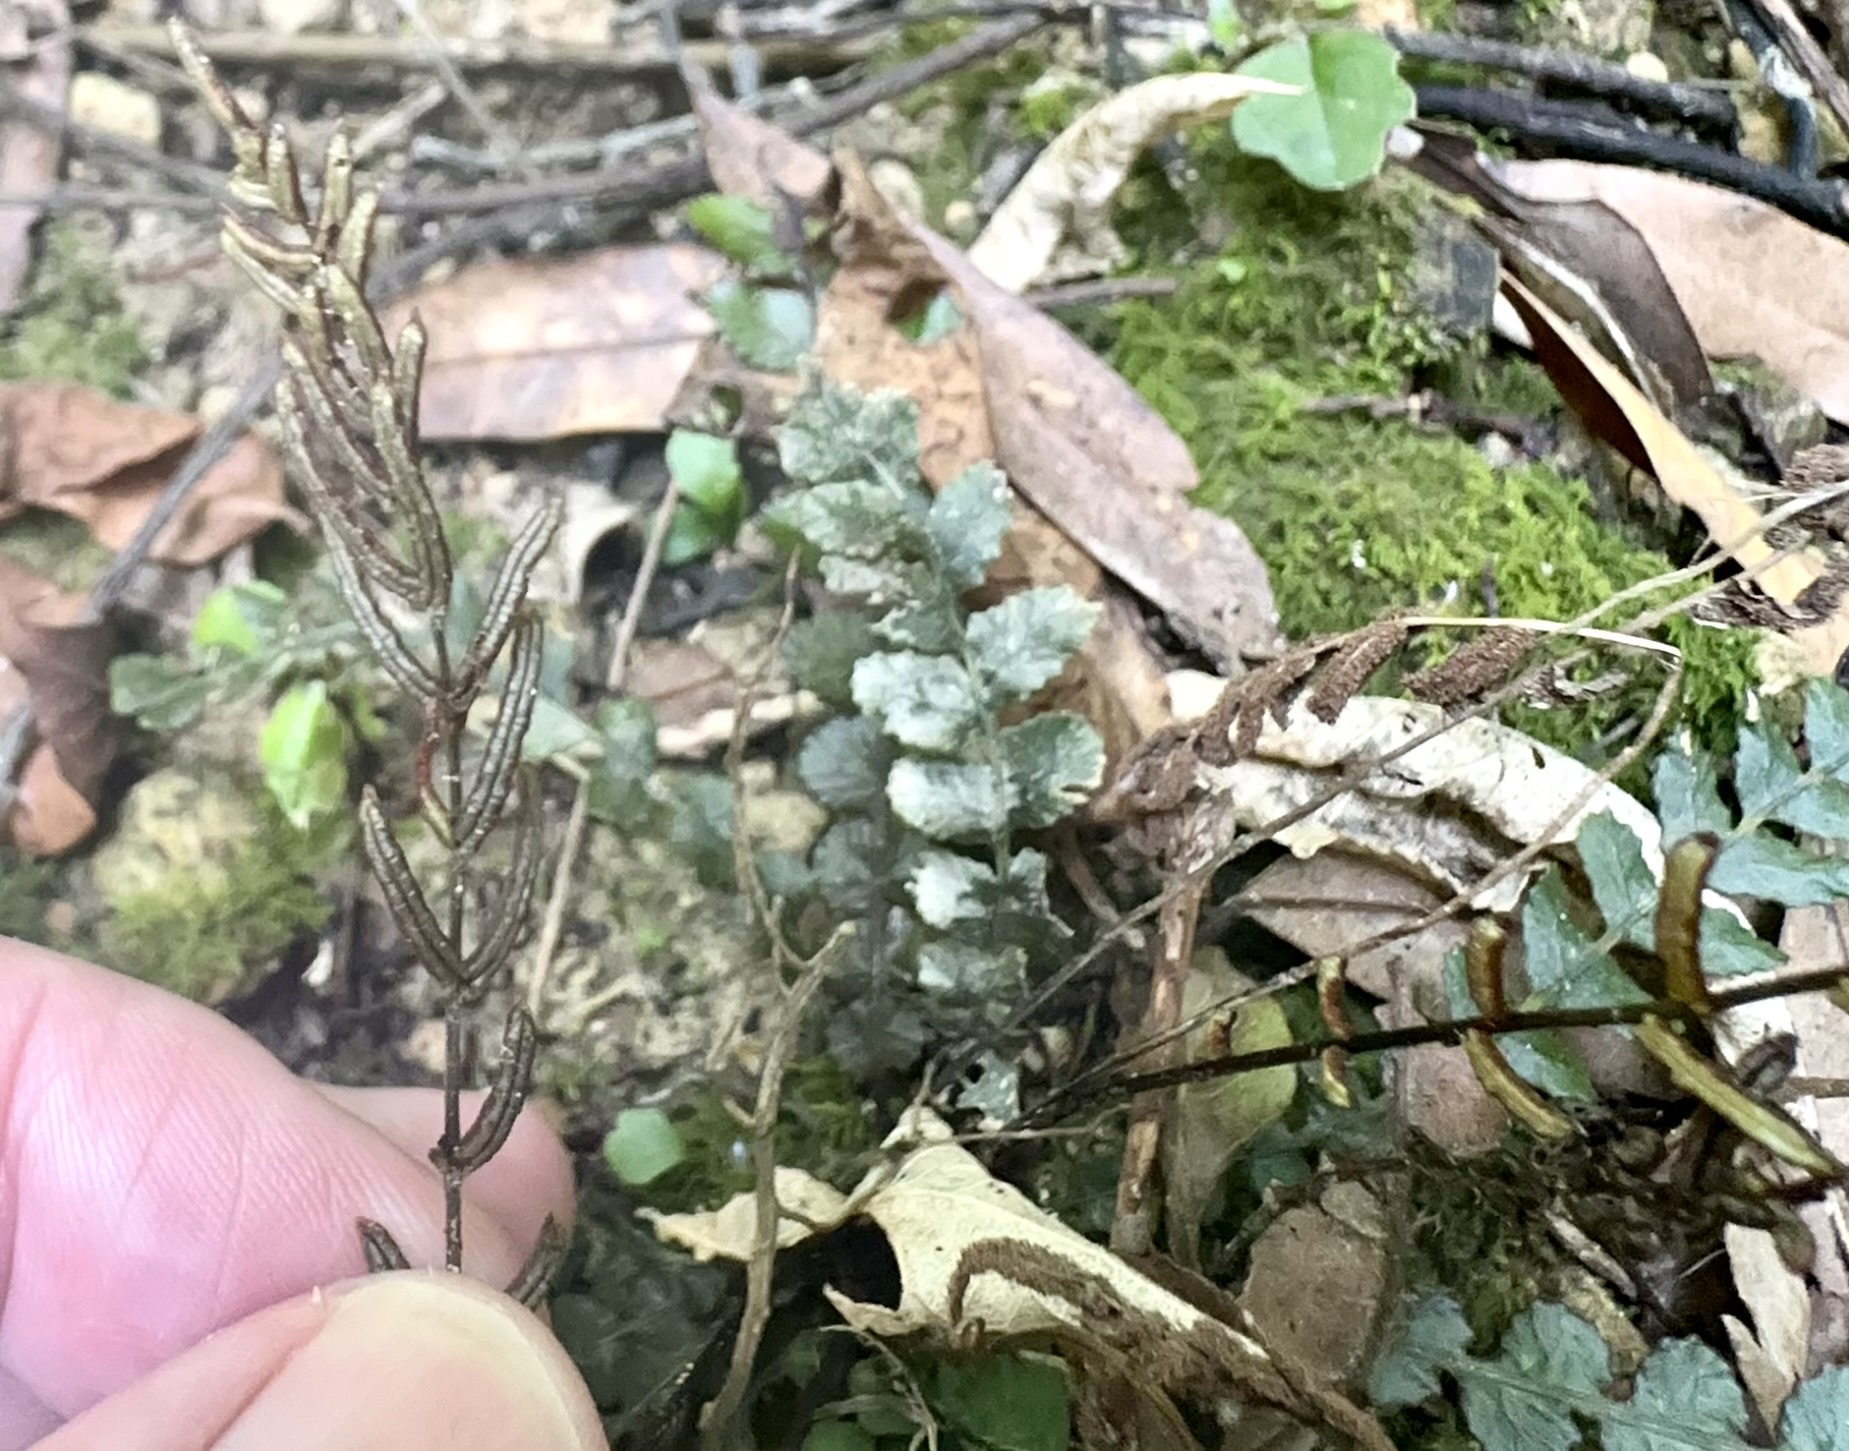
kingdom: Plantae
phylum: Tracheophyta
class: Polypodiopsida
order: Polypodiales
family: Blechnaceae
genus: Austroblechnum
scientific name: Austroblechnum membranaceum
